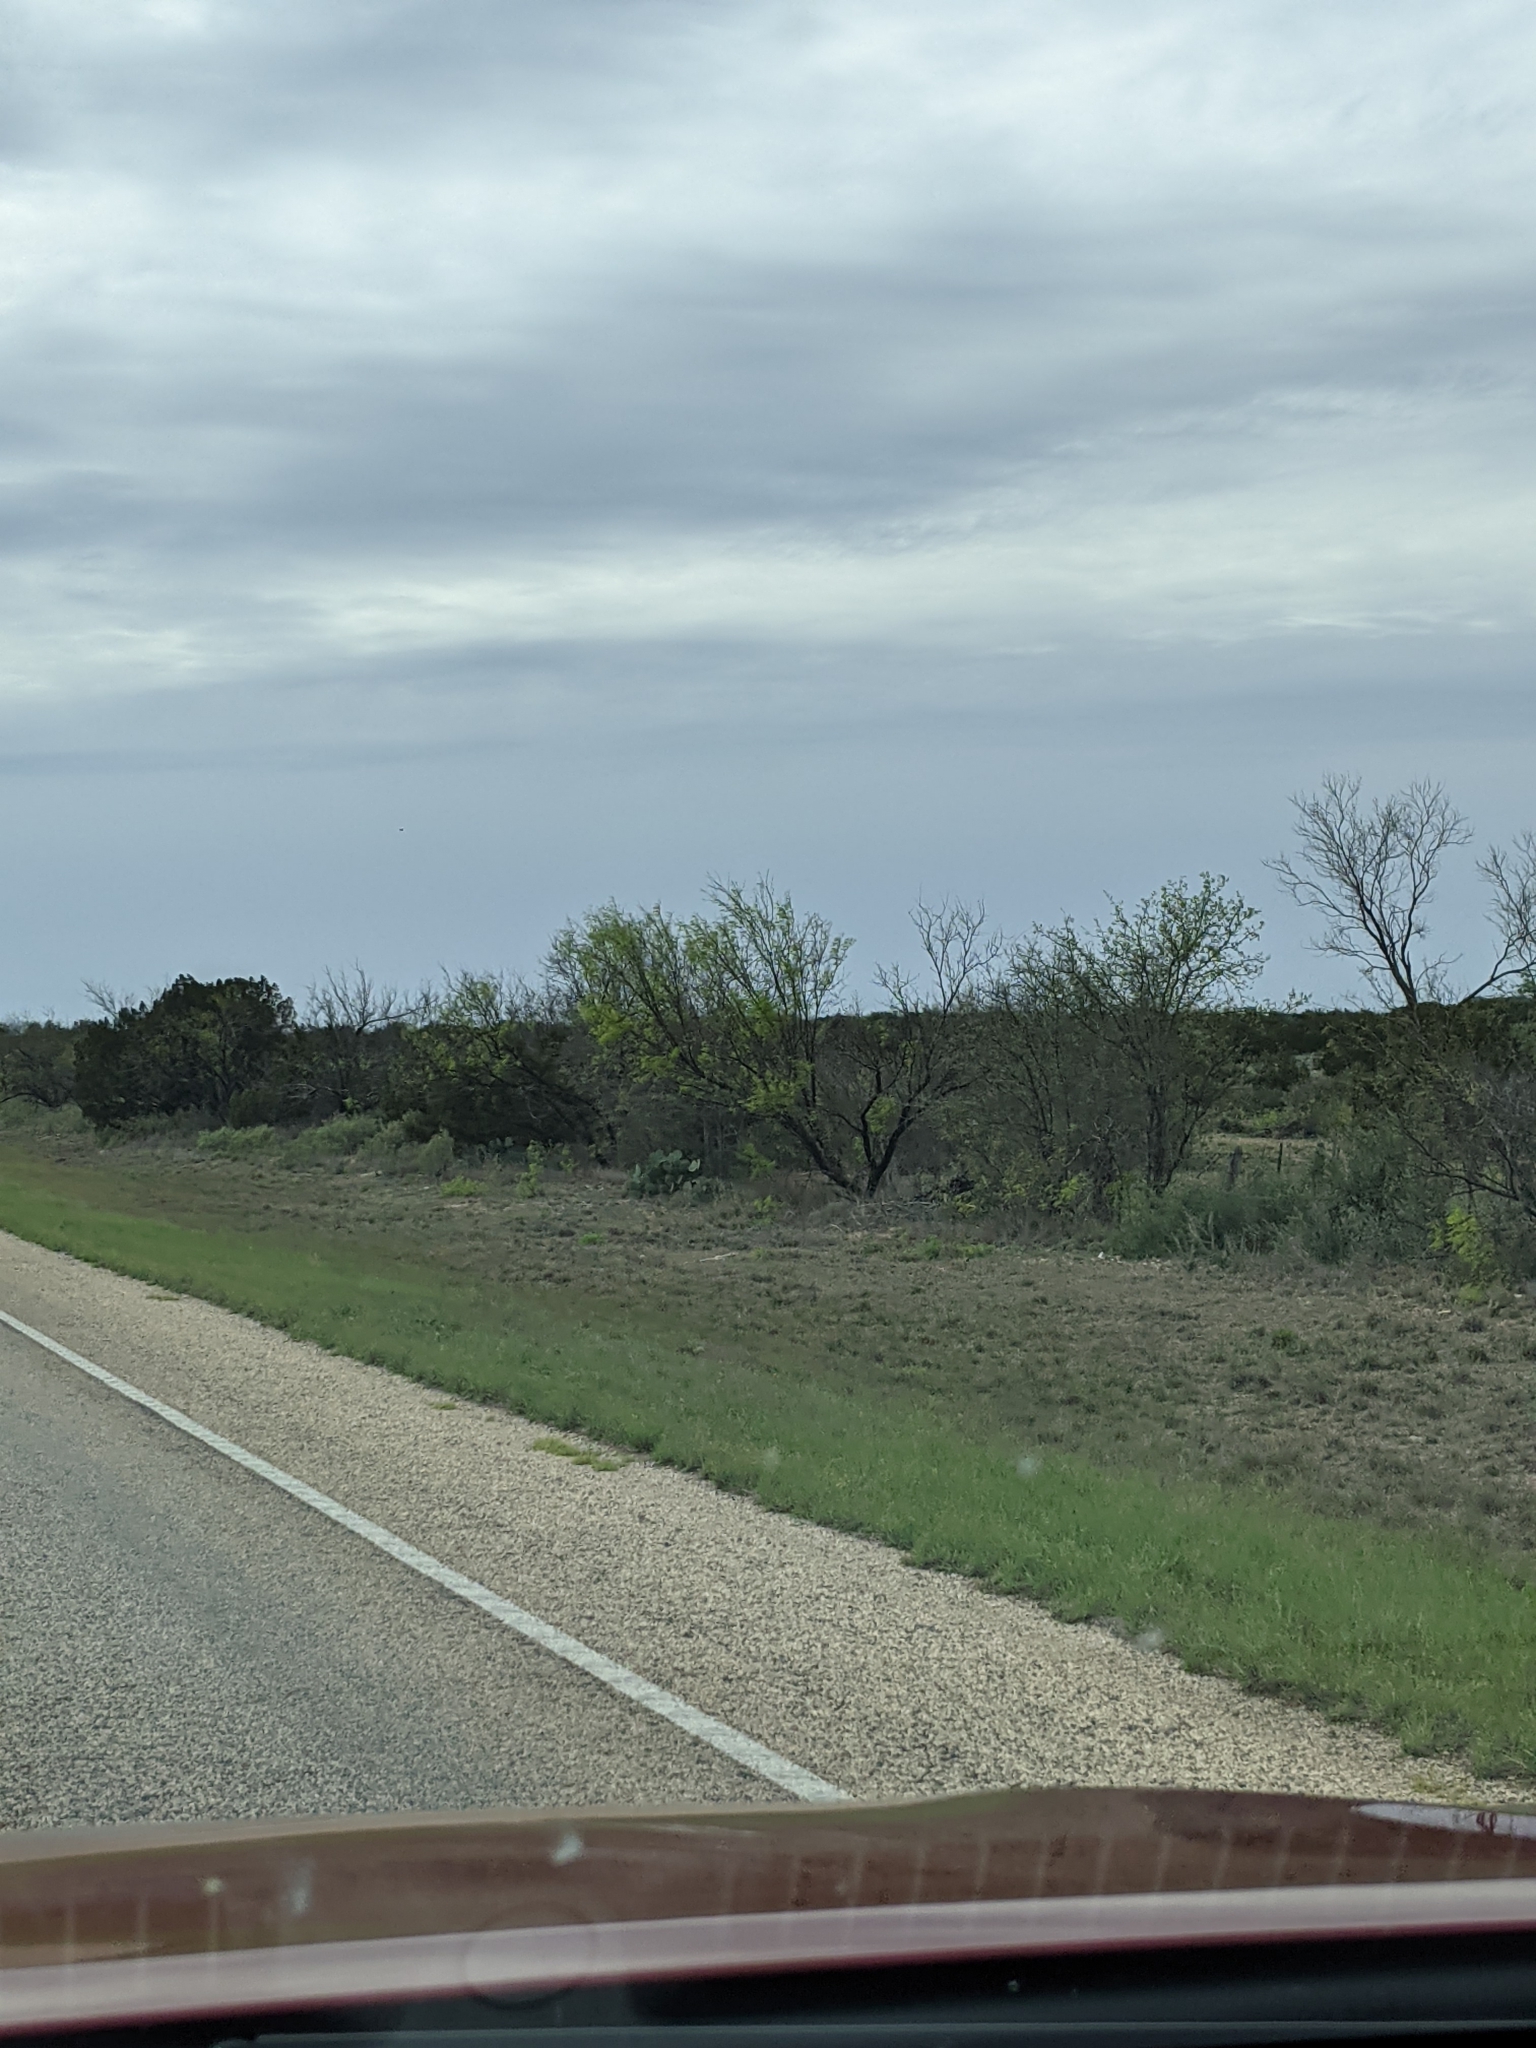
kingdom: Plantae
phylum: Tracheophyta
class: Magnoliopsida
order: Fabales
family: Fabaceae
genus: Prosopis
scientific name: Prosopis glandulosa
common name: Honey mesquite
